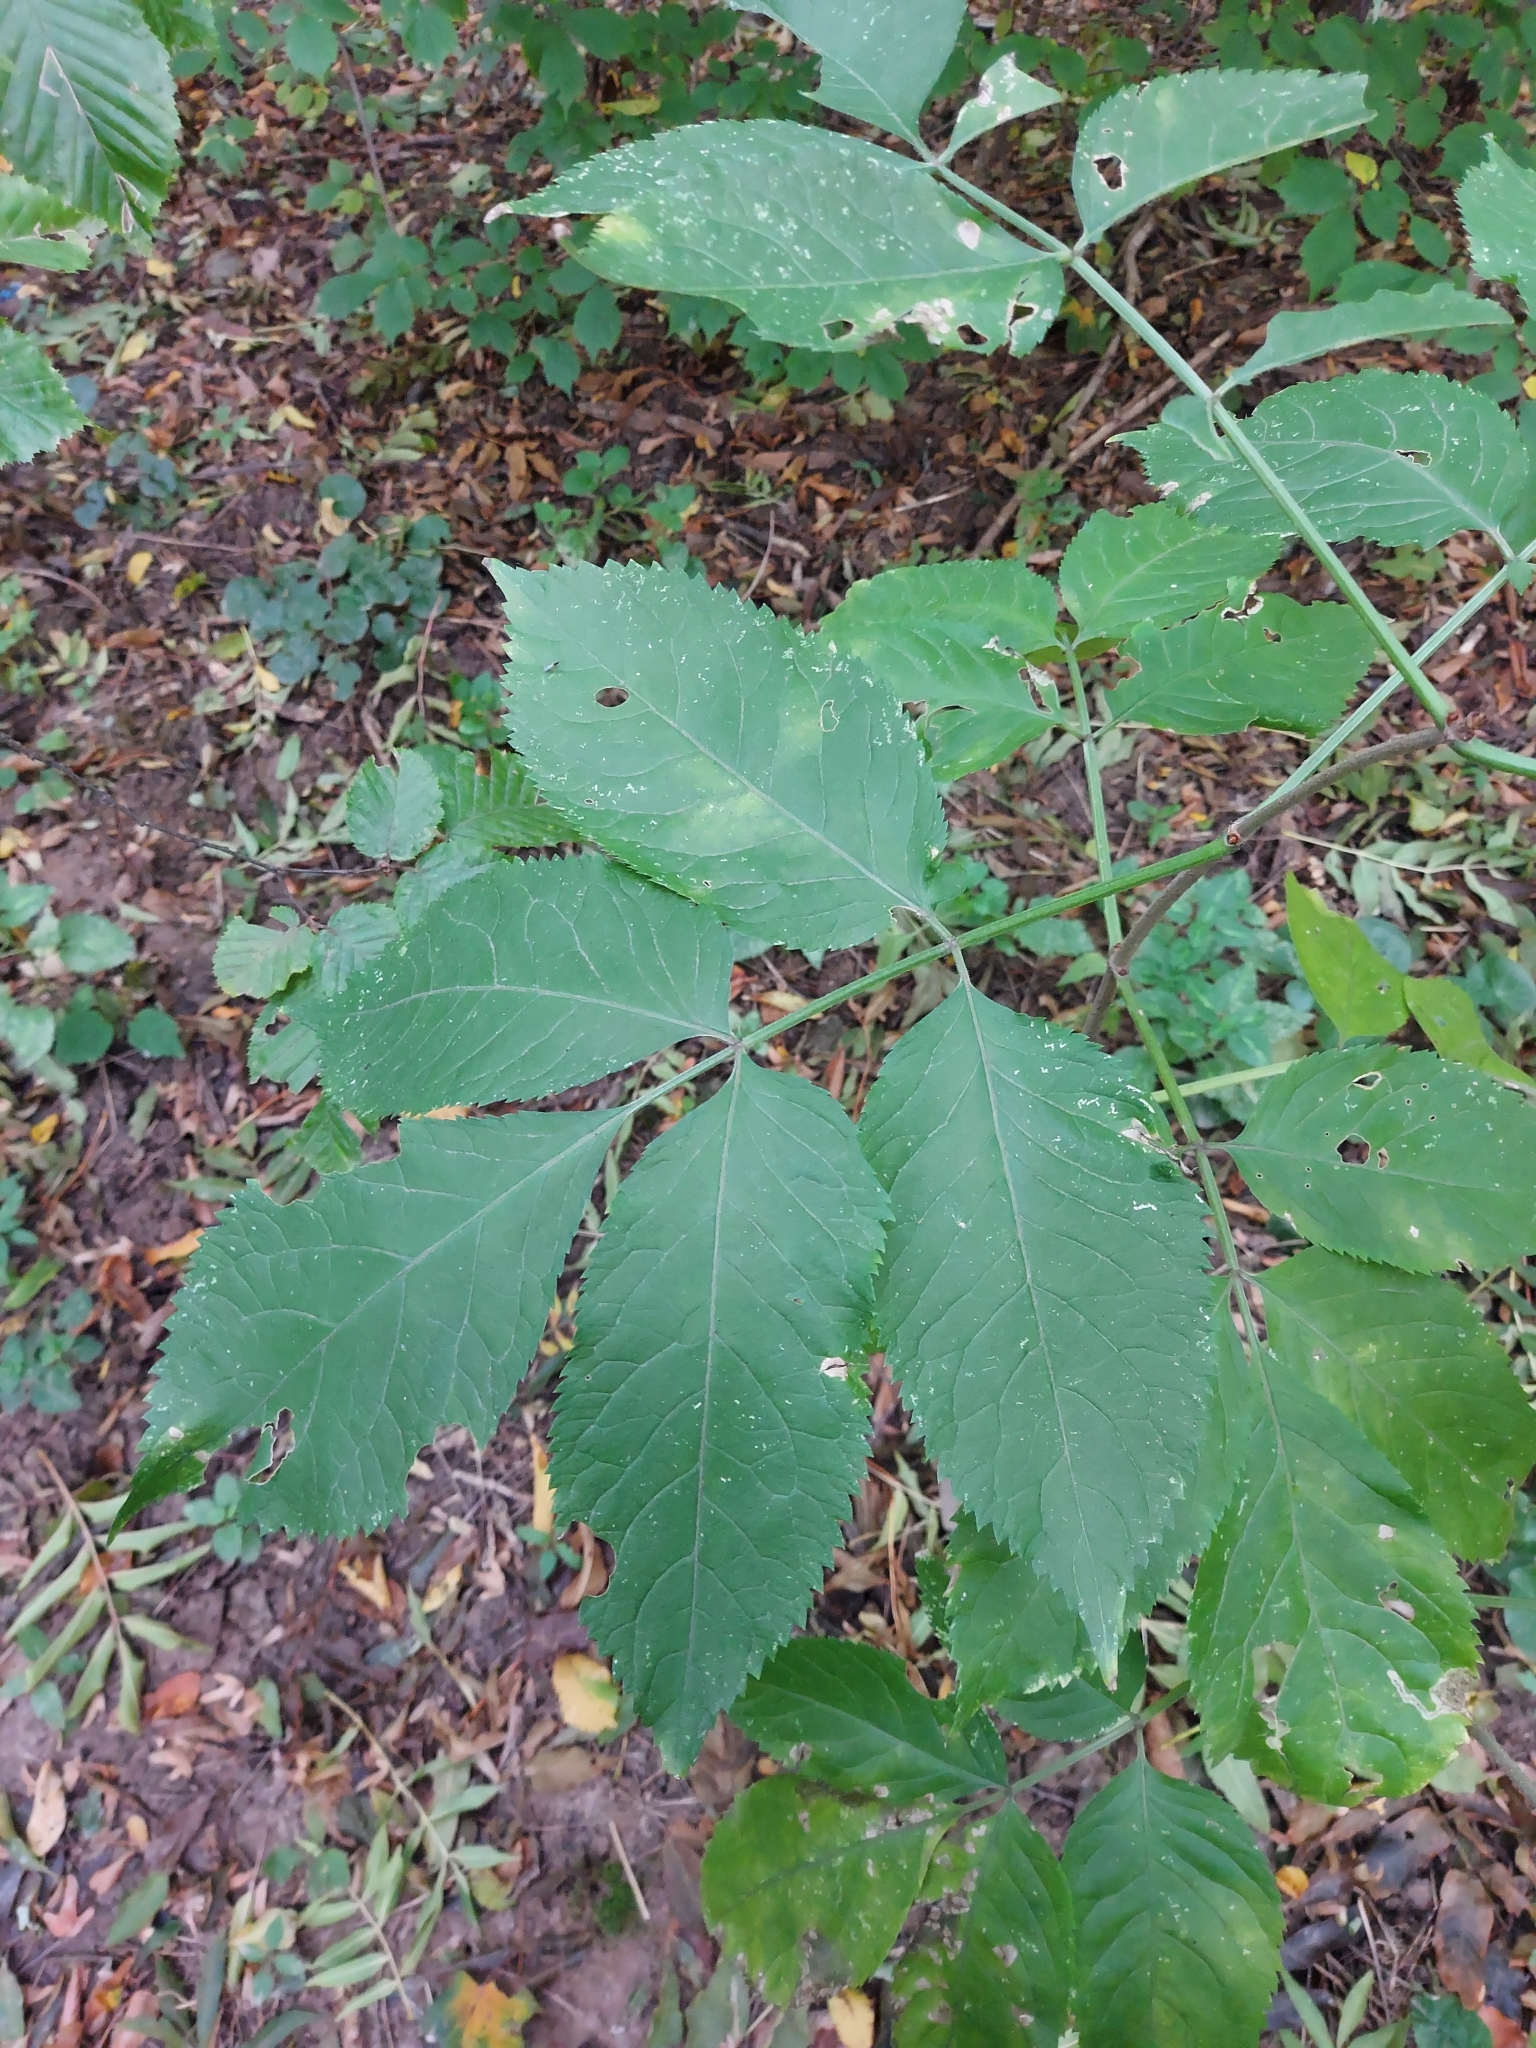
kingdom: Plantae
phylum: Tracheophyta
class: Magnoliopsida
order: Dipsacales
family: Viburnaceae
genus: Sambucus
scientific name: Sambucus nigra
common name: Elder
